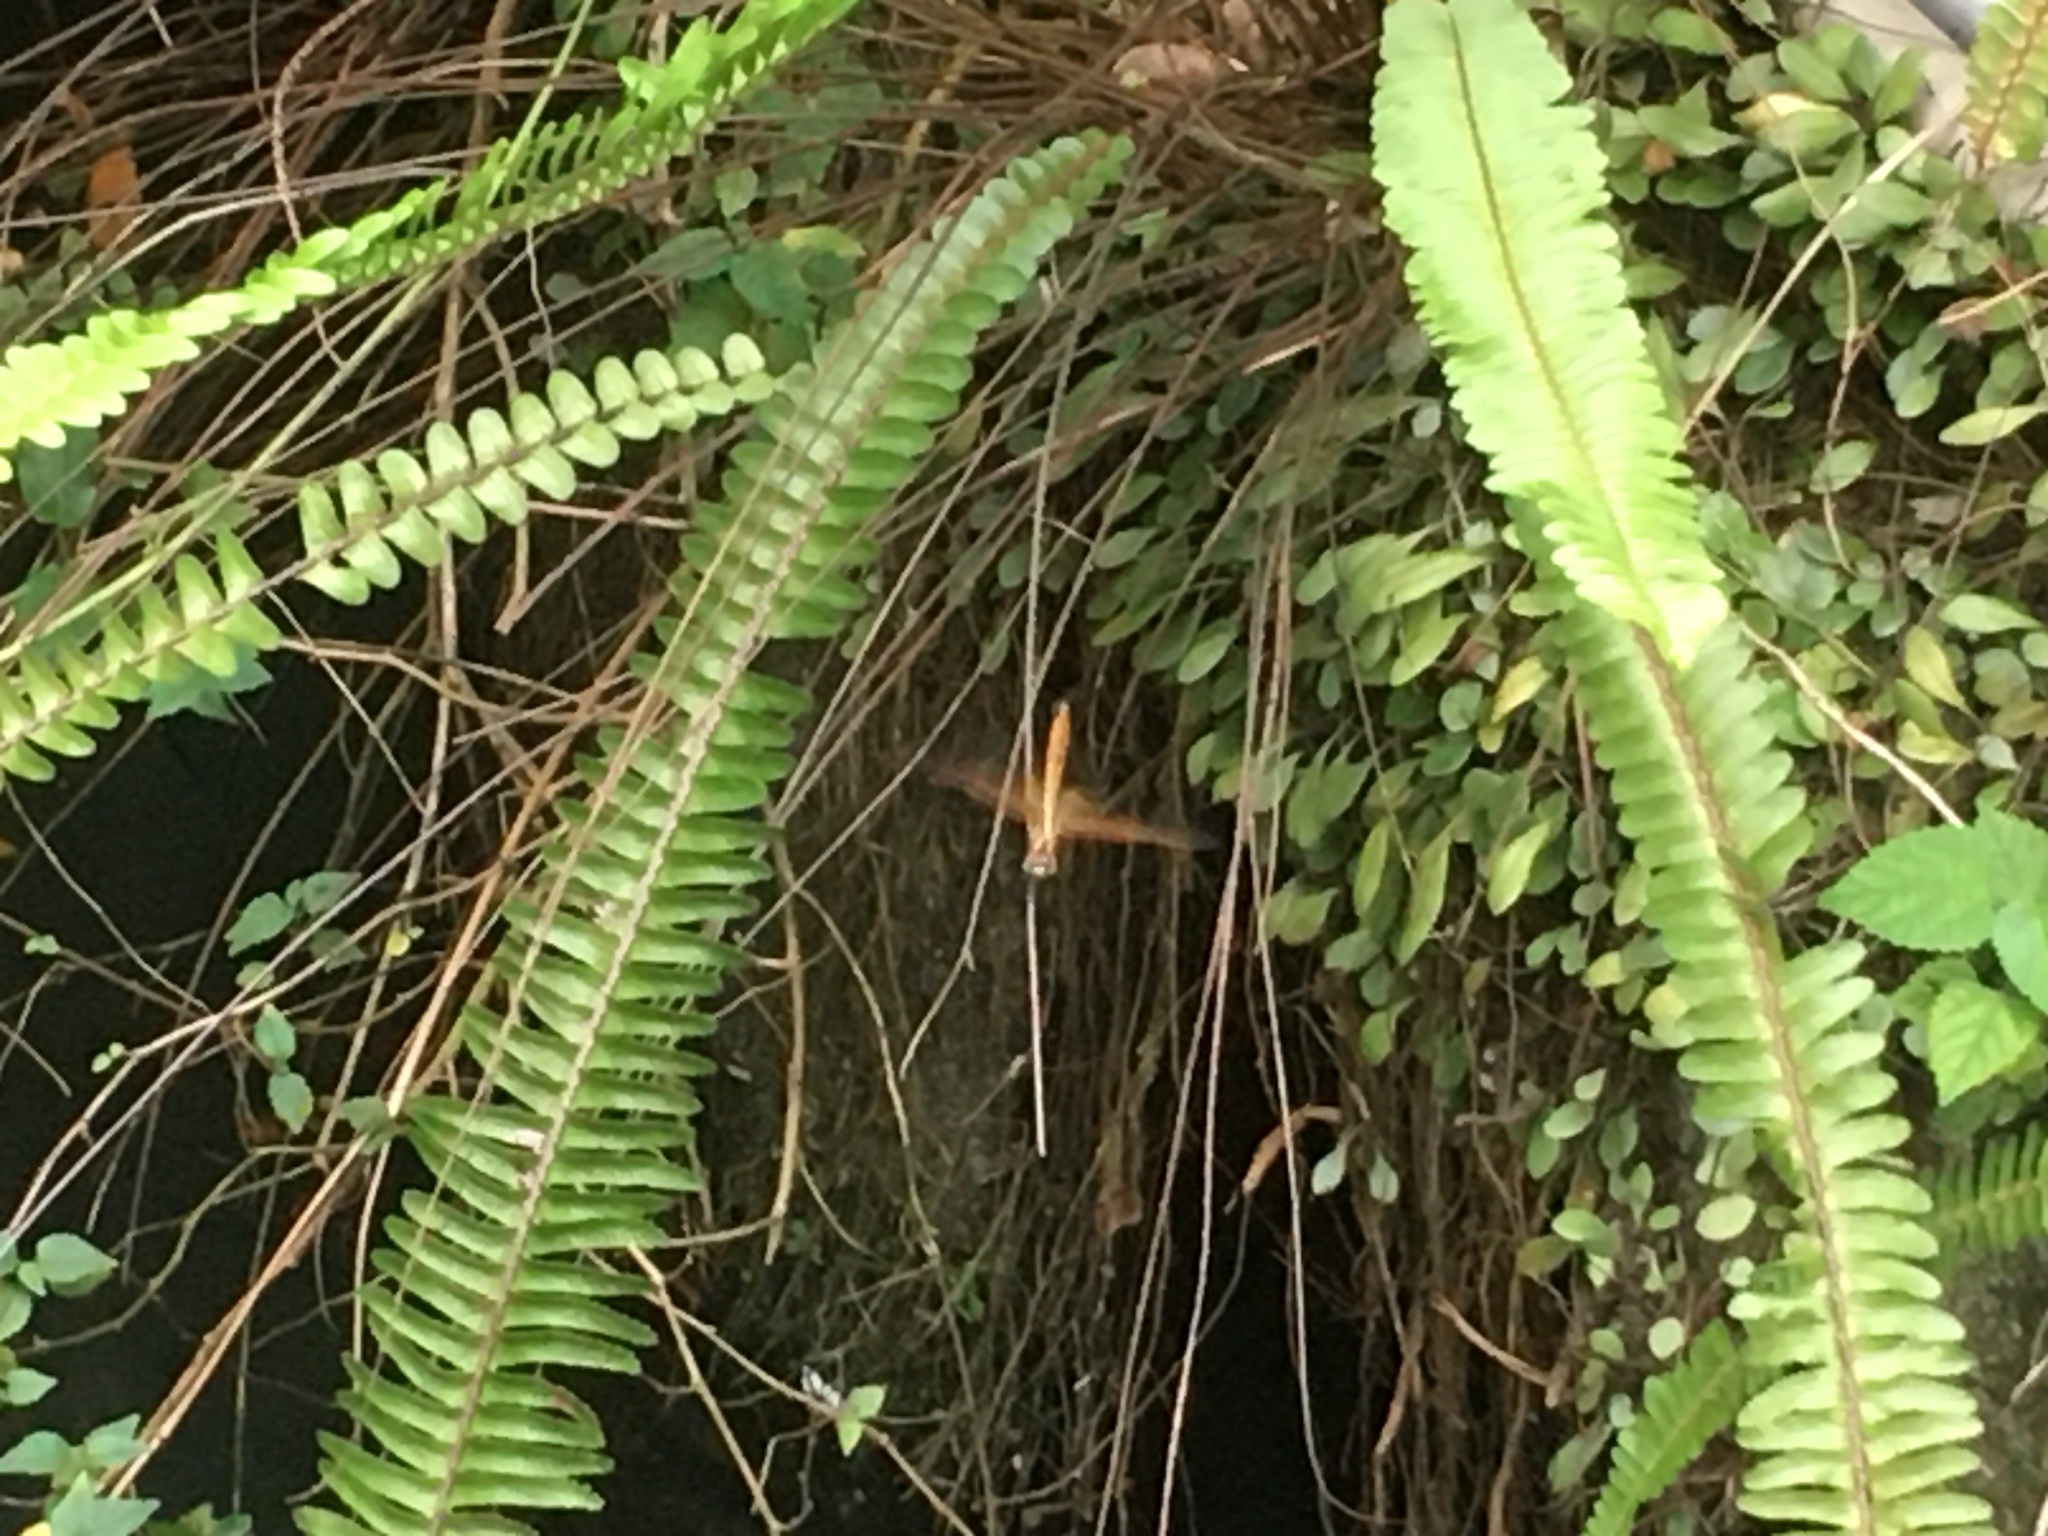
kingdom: Animalia
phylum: Arthropoda
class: Insecta
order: Odonata
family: Libellulidae
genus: Trithemis
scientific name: Trithemis aurora
